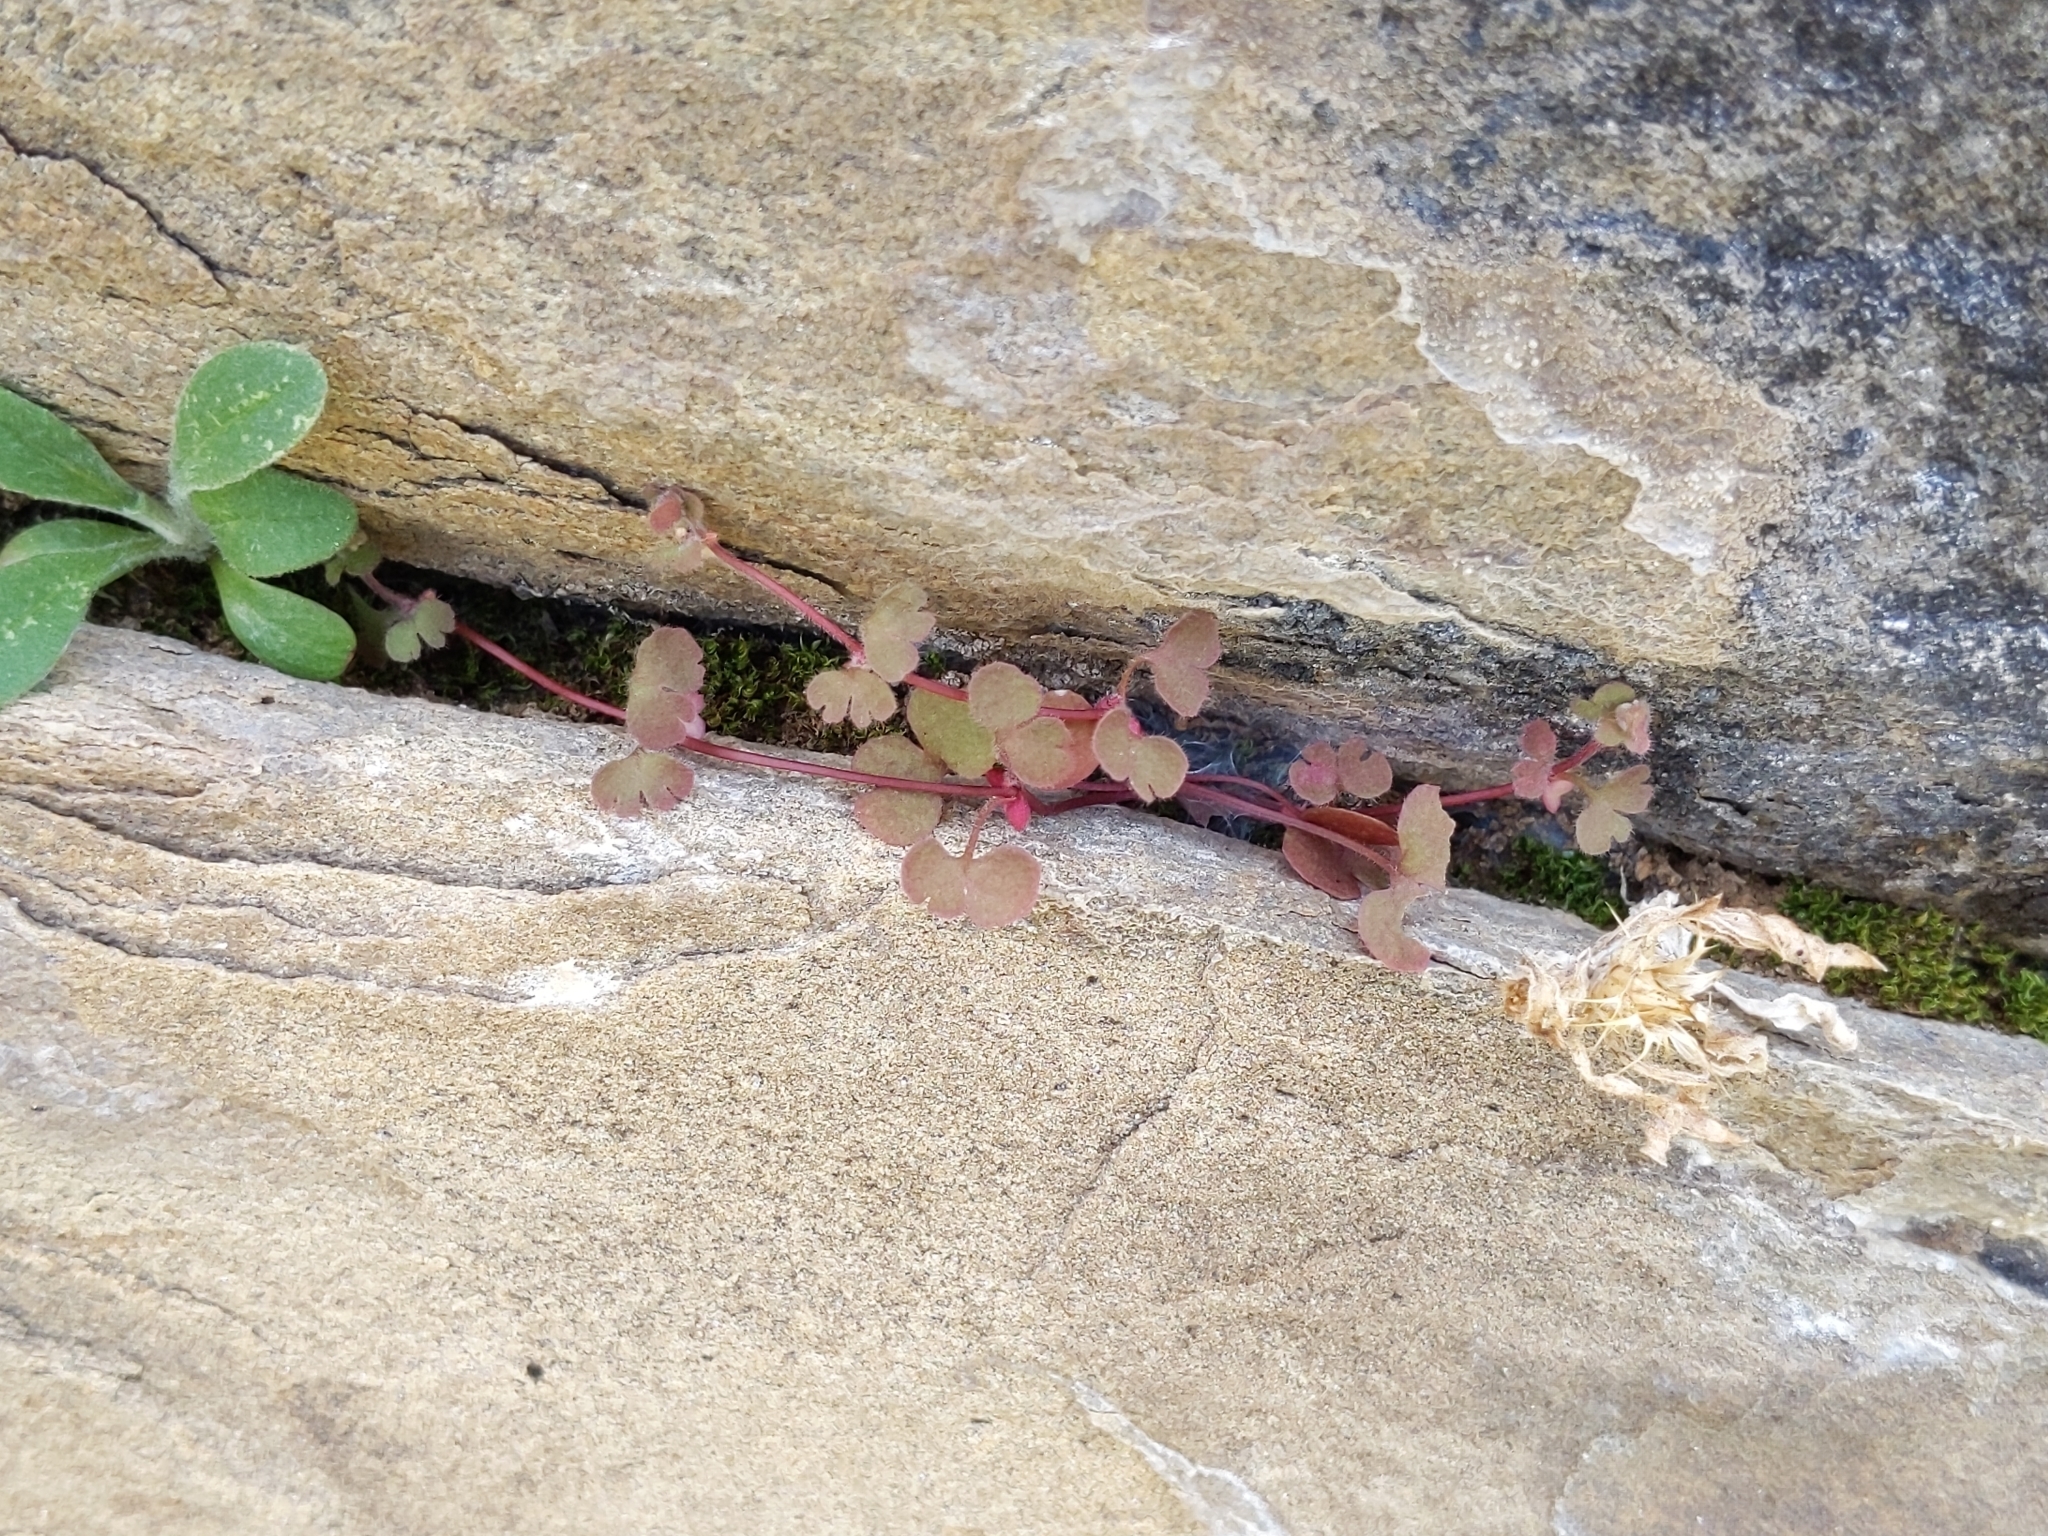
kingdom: Plantae
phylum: Tracheophyta
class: Magnoliopsida
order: Caryophyllales
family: Polygonaceae
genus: Pterostegia
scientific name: Pterostegia drymarioides
